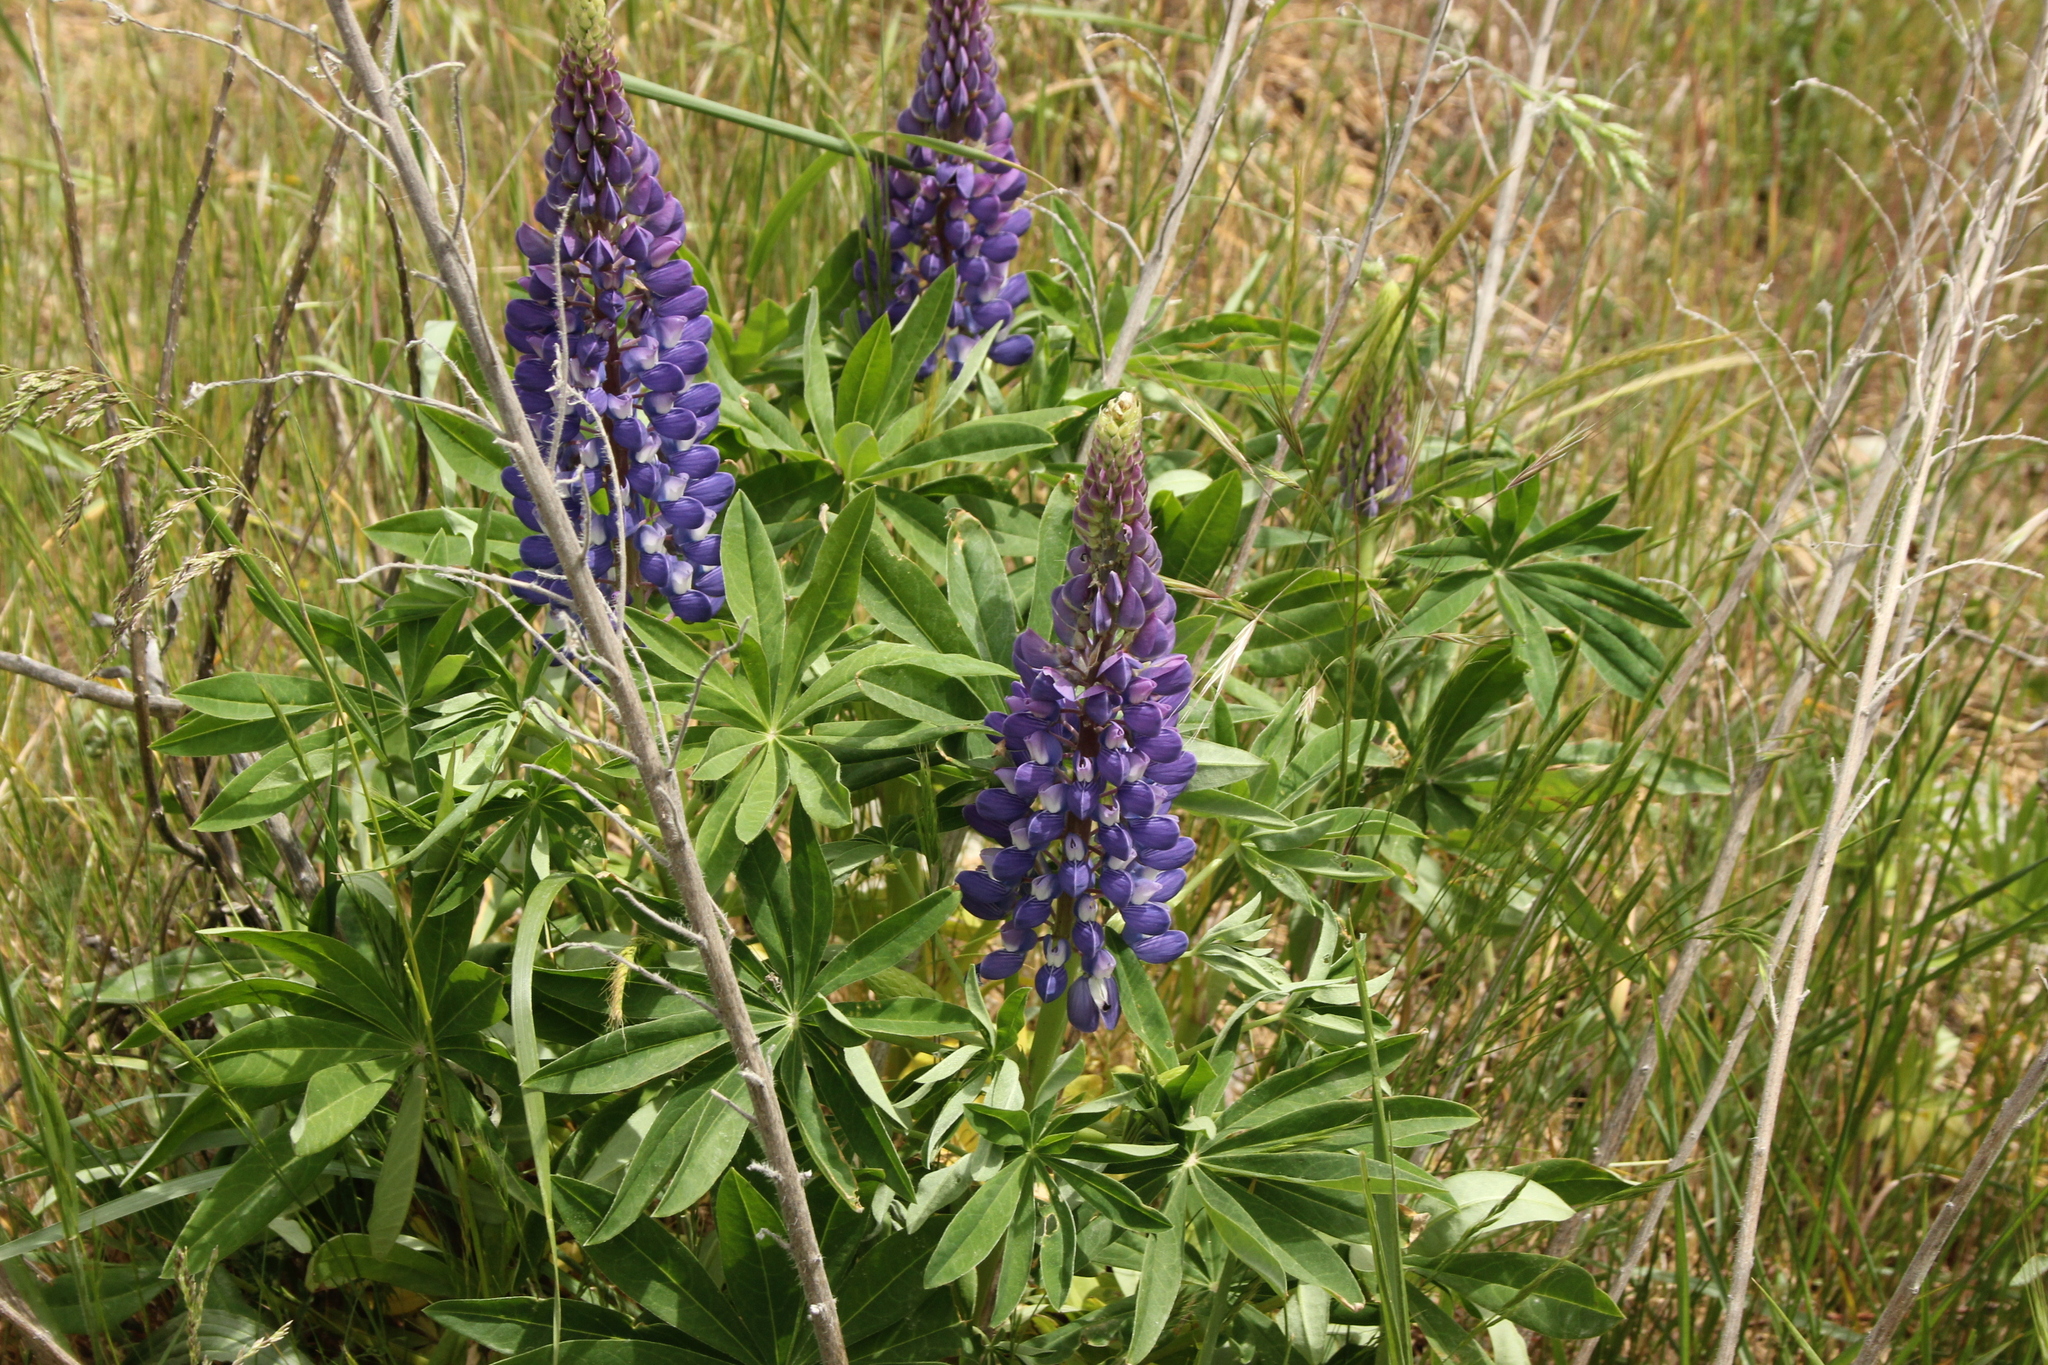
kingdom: Plantae
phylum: Tracheophyta
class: Magnoliopsida
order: Fabales
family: Fabaceae
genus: Lupinus
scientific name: Lupinus polyphyllus
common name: Garden lupin
